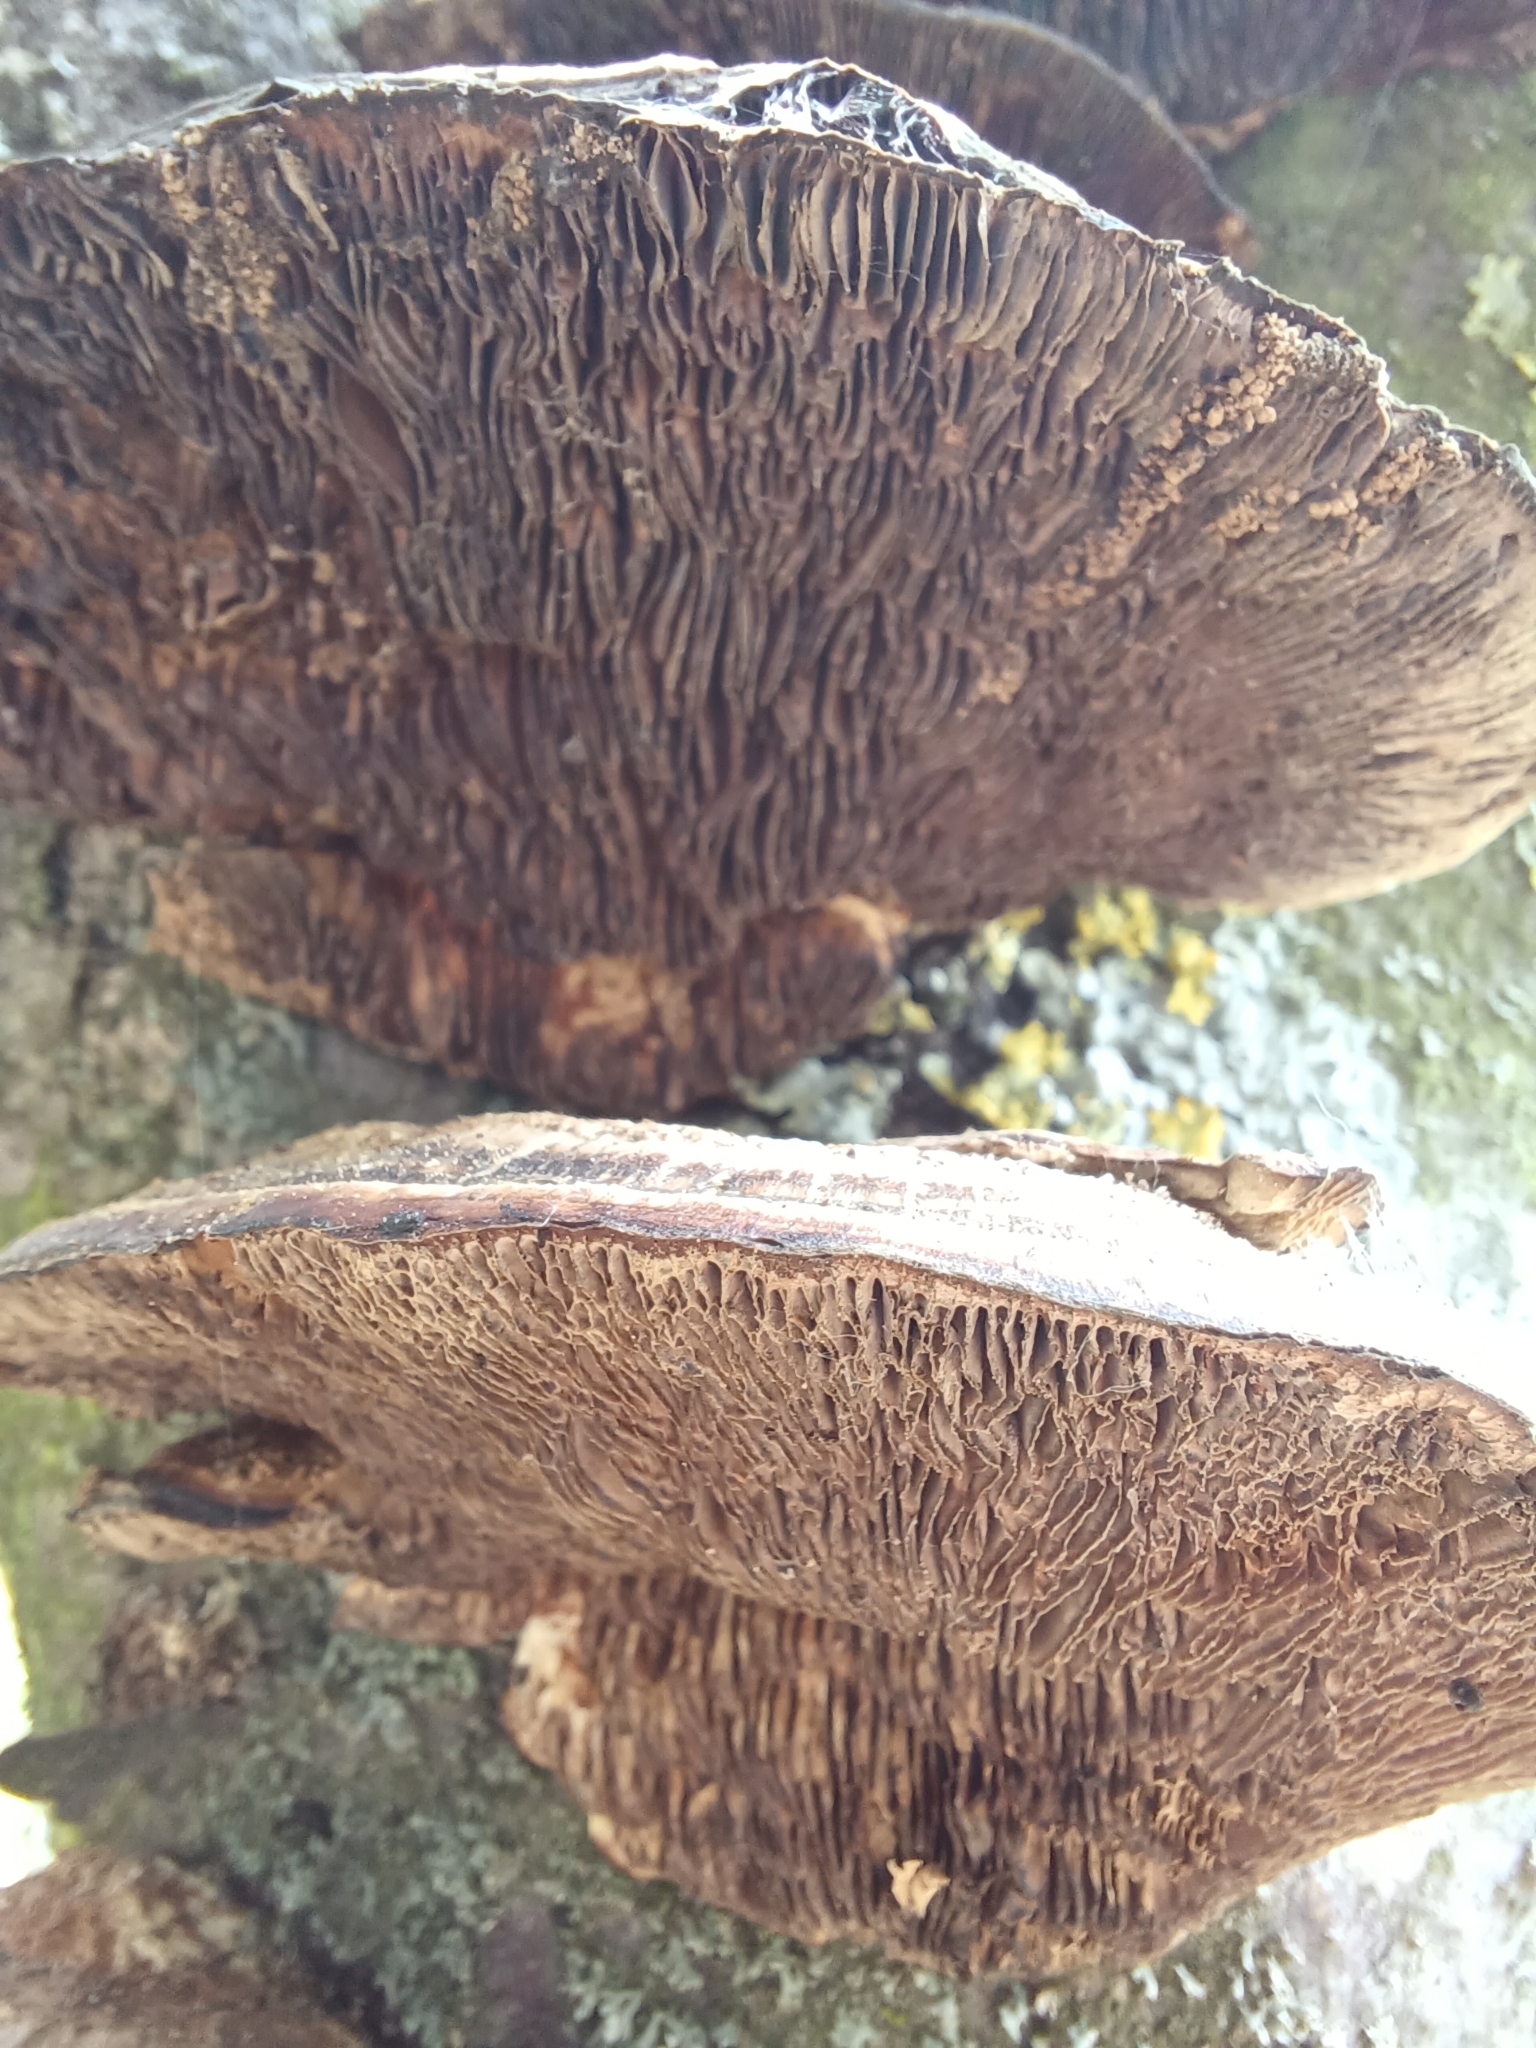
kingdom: Fungi
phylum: Basidiomycota
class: Agaricomycetes
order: Polyporales
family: Polyporaceae
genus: Daedaleopsis
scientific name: Daedaleopsis confragosa
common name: Blushing bracket
